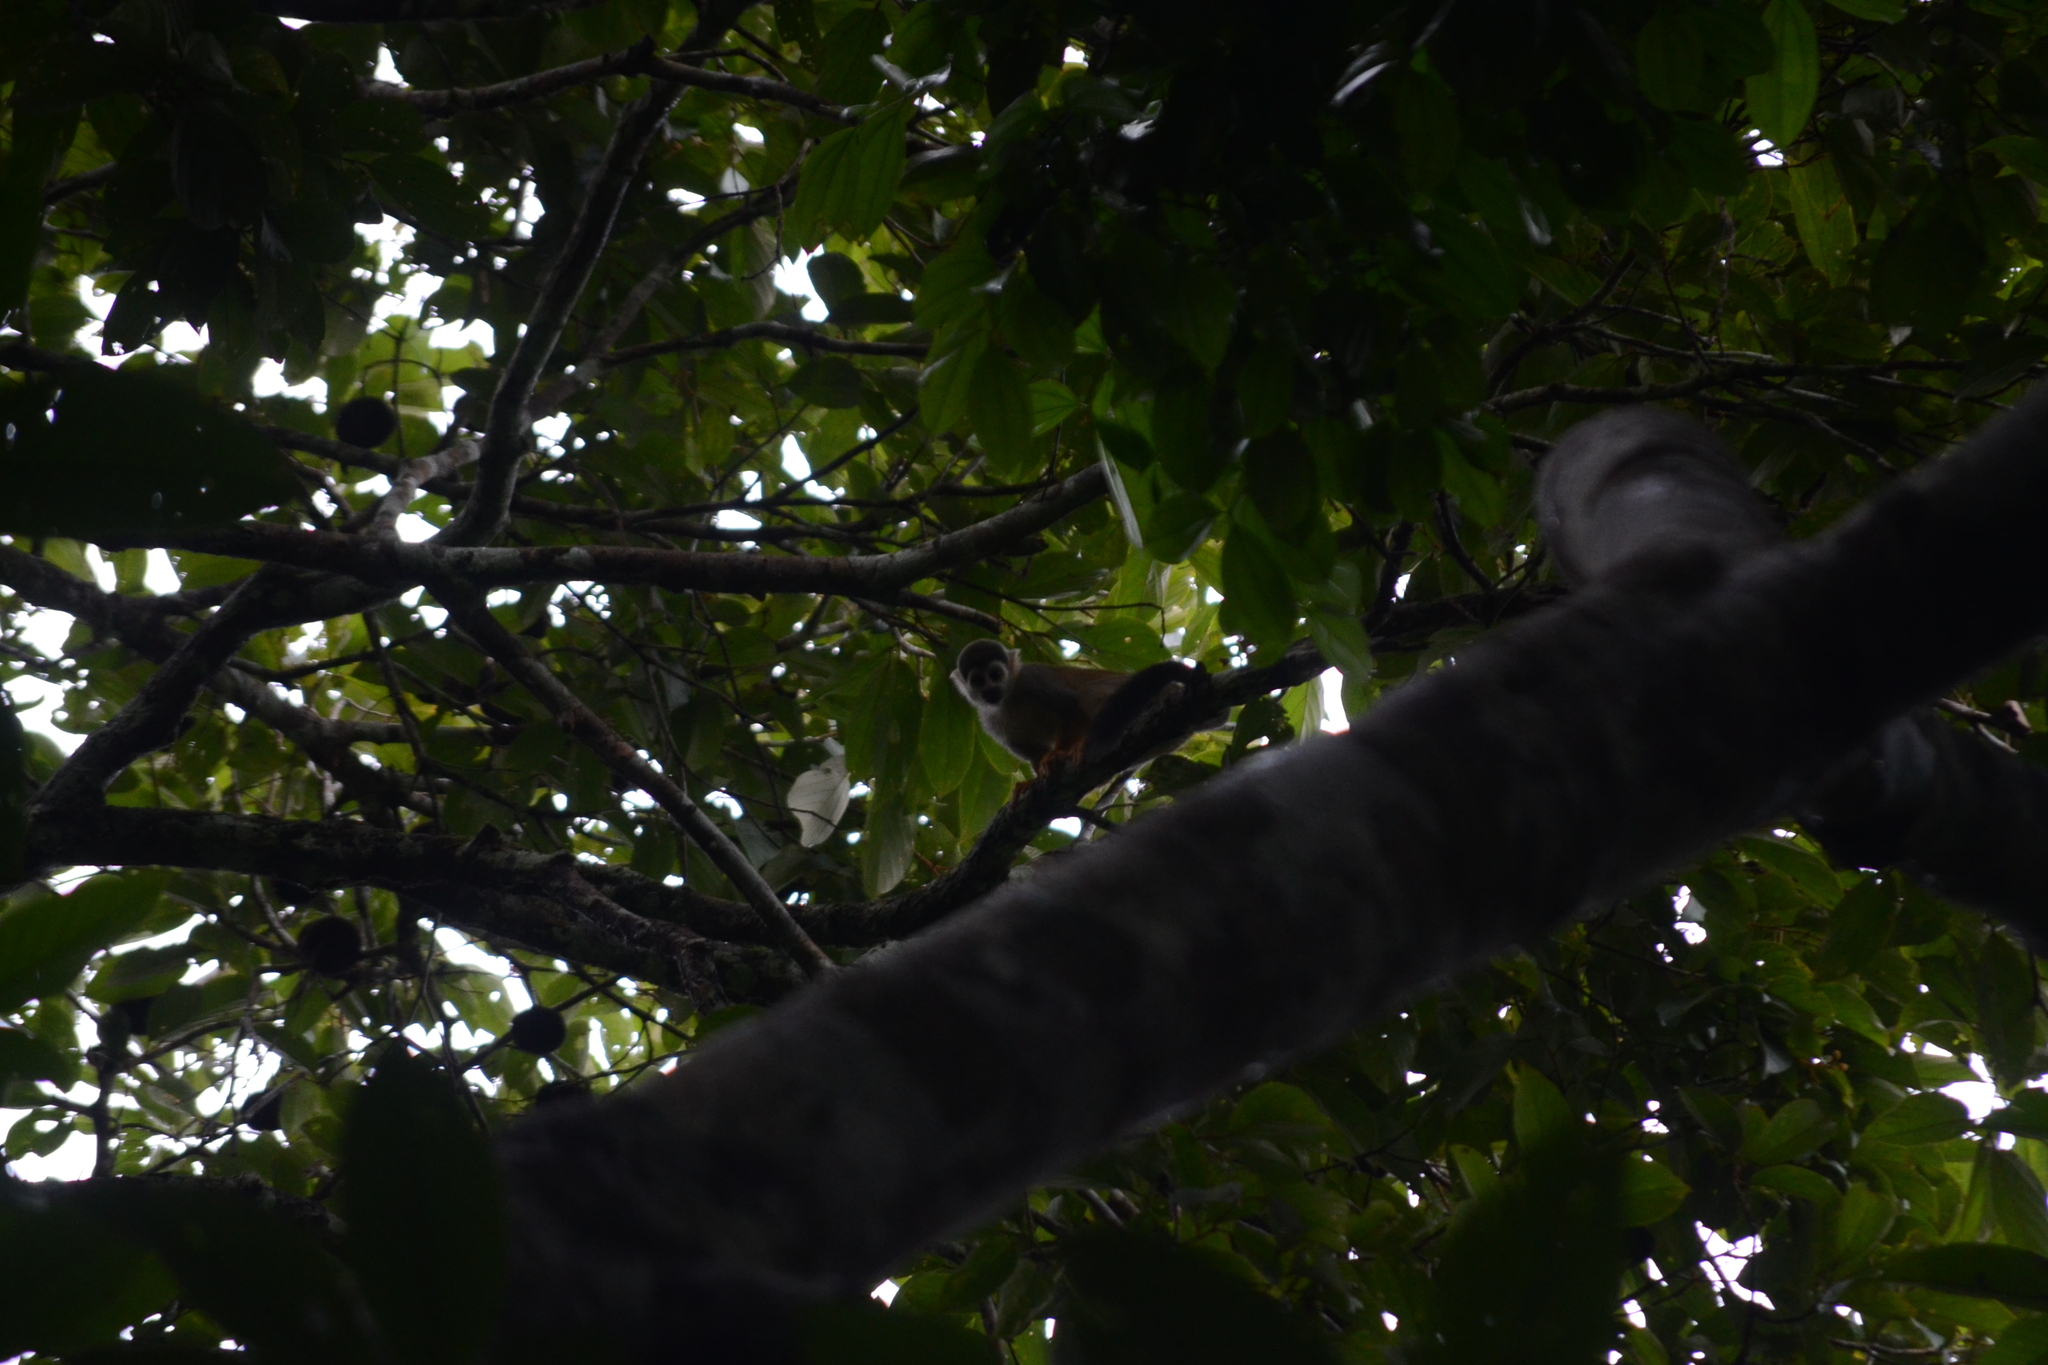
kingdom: Animalia
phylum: Chordata
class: Mammalia
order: Primates
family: Cebidae
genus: Saimiri
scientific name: Saimiri cassiquiarensis
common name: Humboldt’s squirrel monkey
